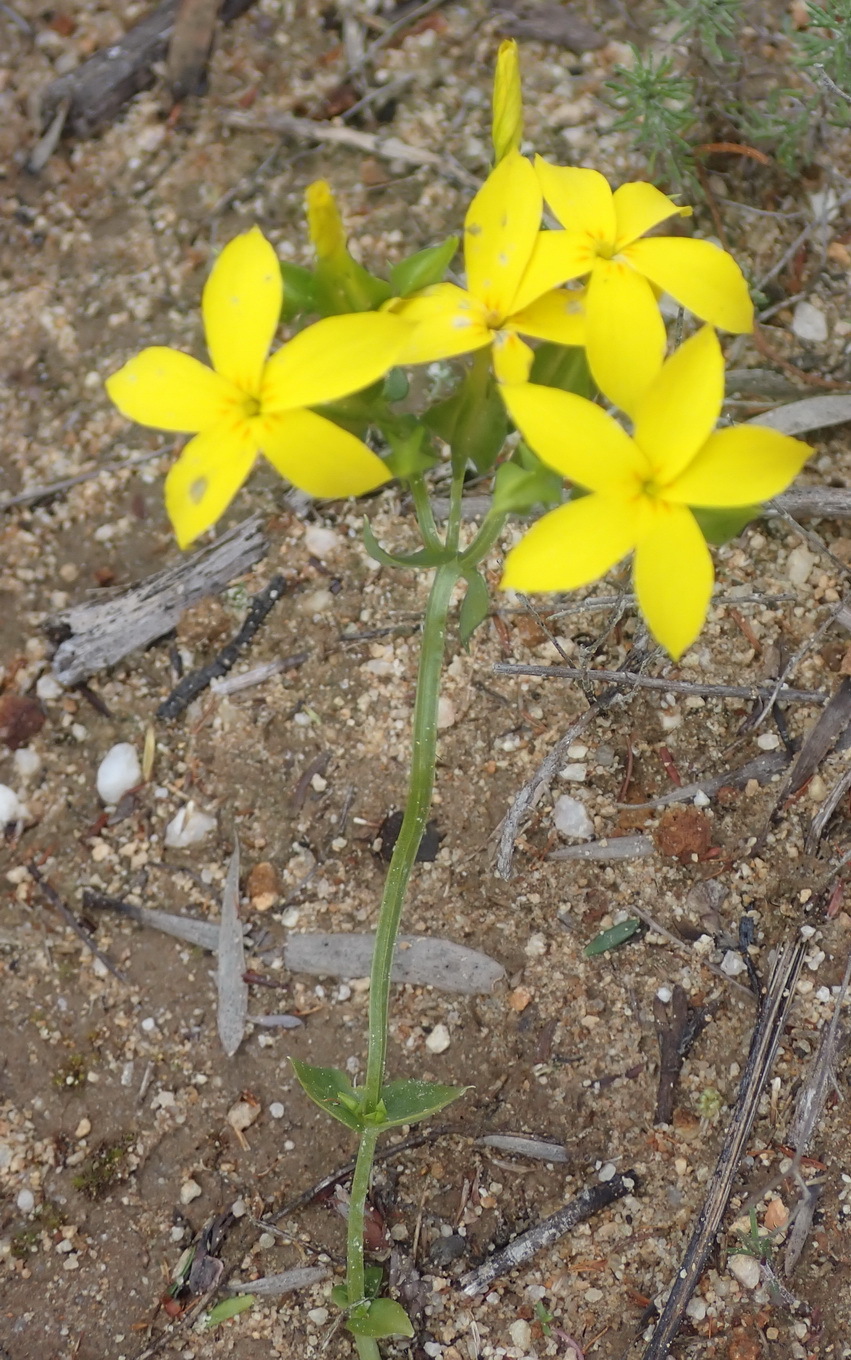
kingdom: Plantae
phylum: Tracheophyta
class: Magnoliopsida
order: Gentianales
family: Gentianaceae
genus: Sebaea
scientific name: Sebaea exacoides
